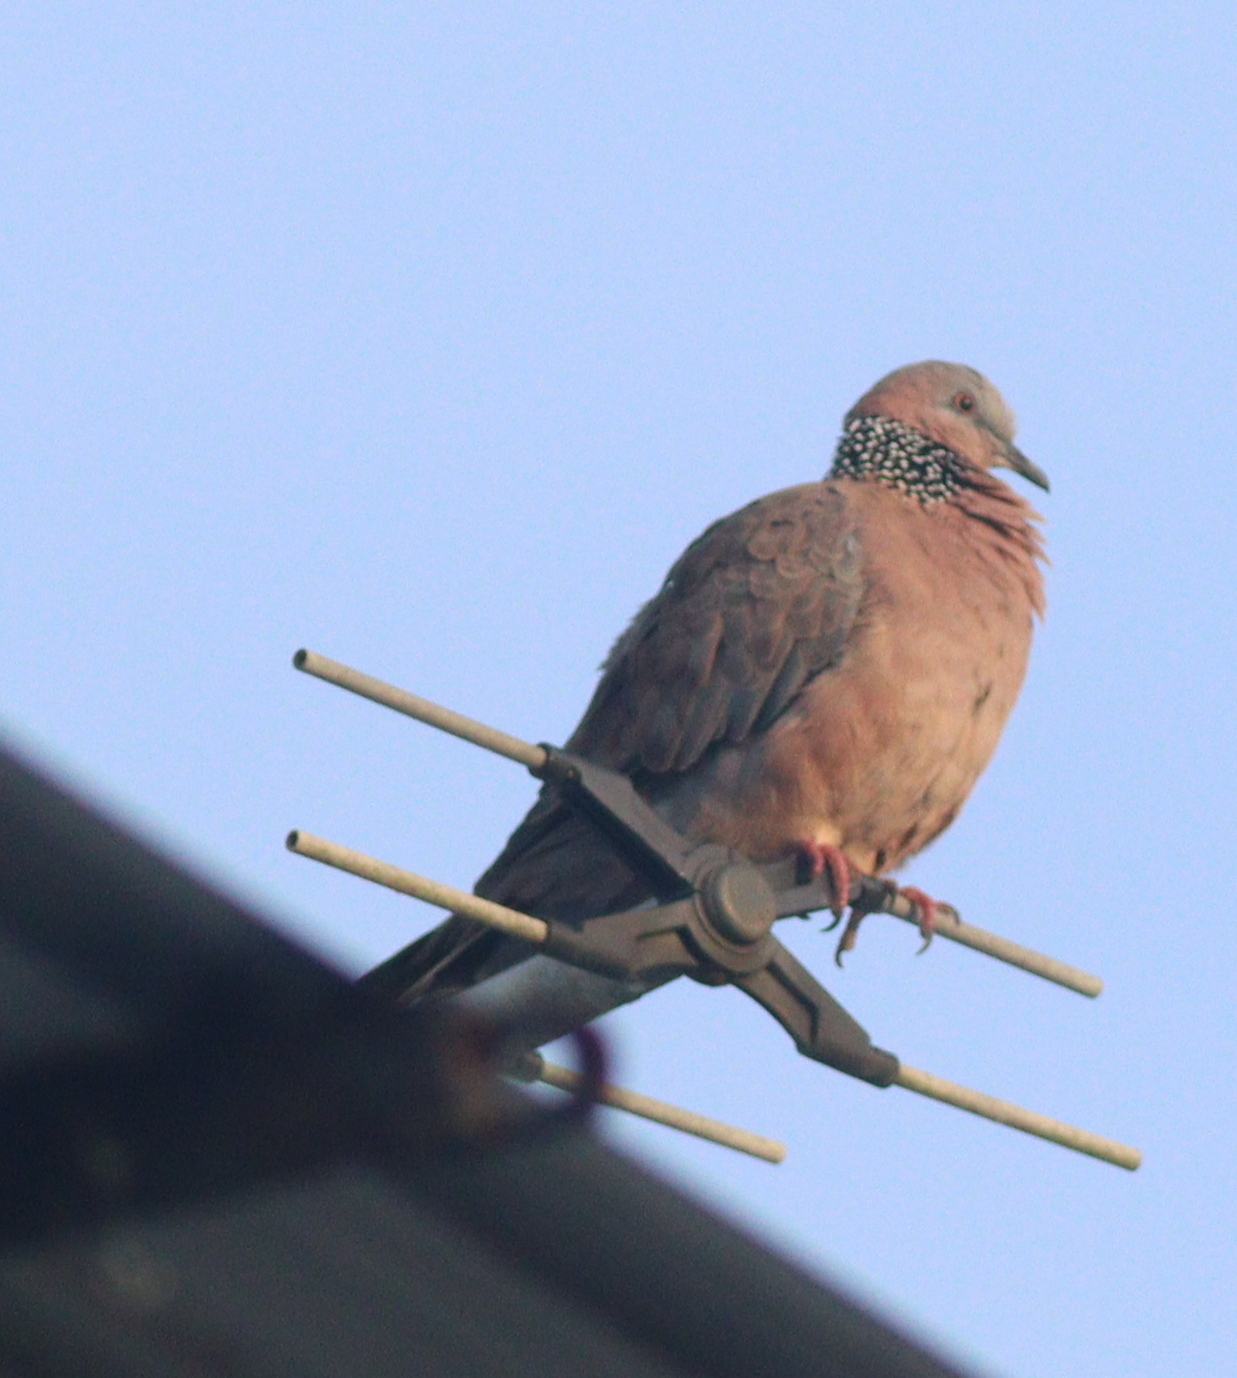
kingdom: Animalia
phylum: Chordata
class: Aves
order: Columbiformes
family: Columbidae
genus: Spilopelia
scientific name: Spilopelia chinensis
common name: Spotted dove
